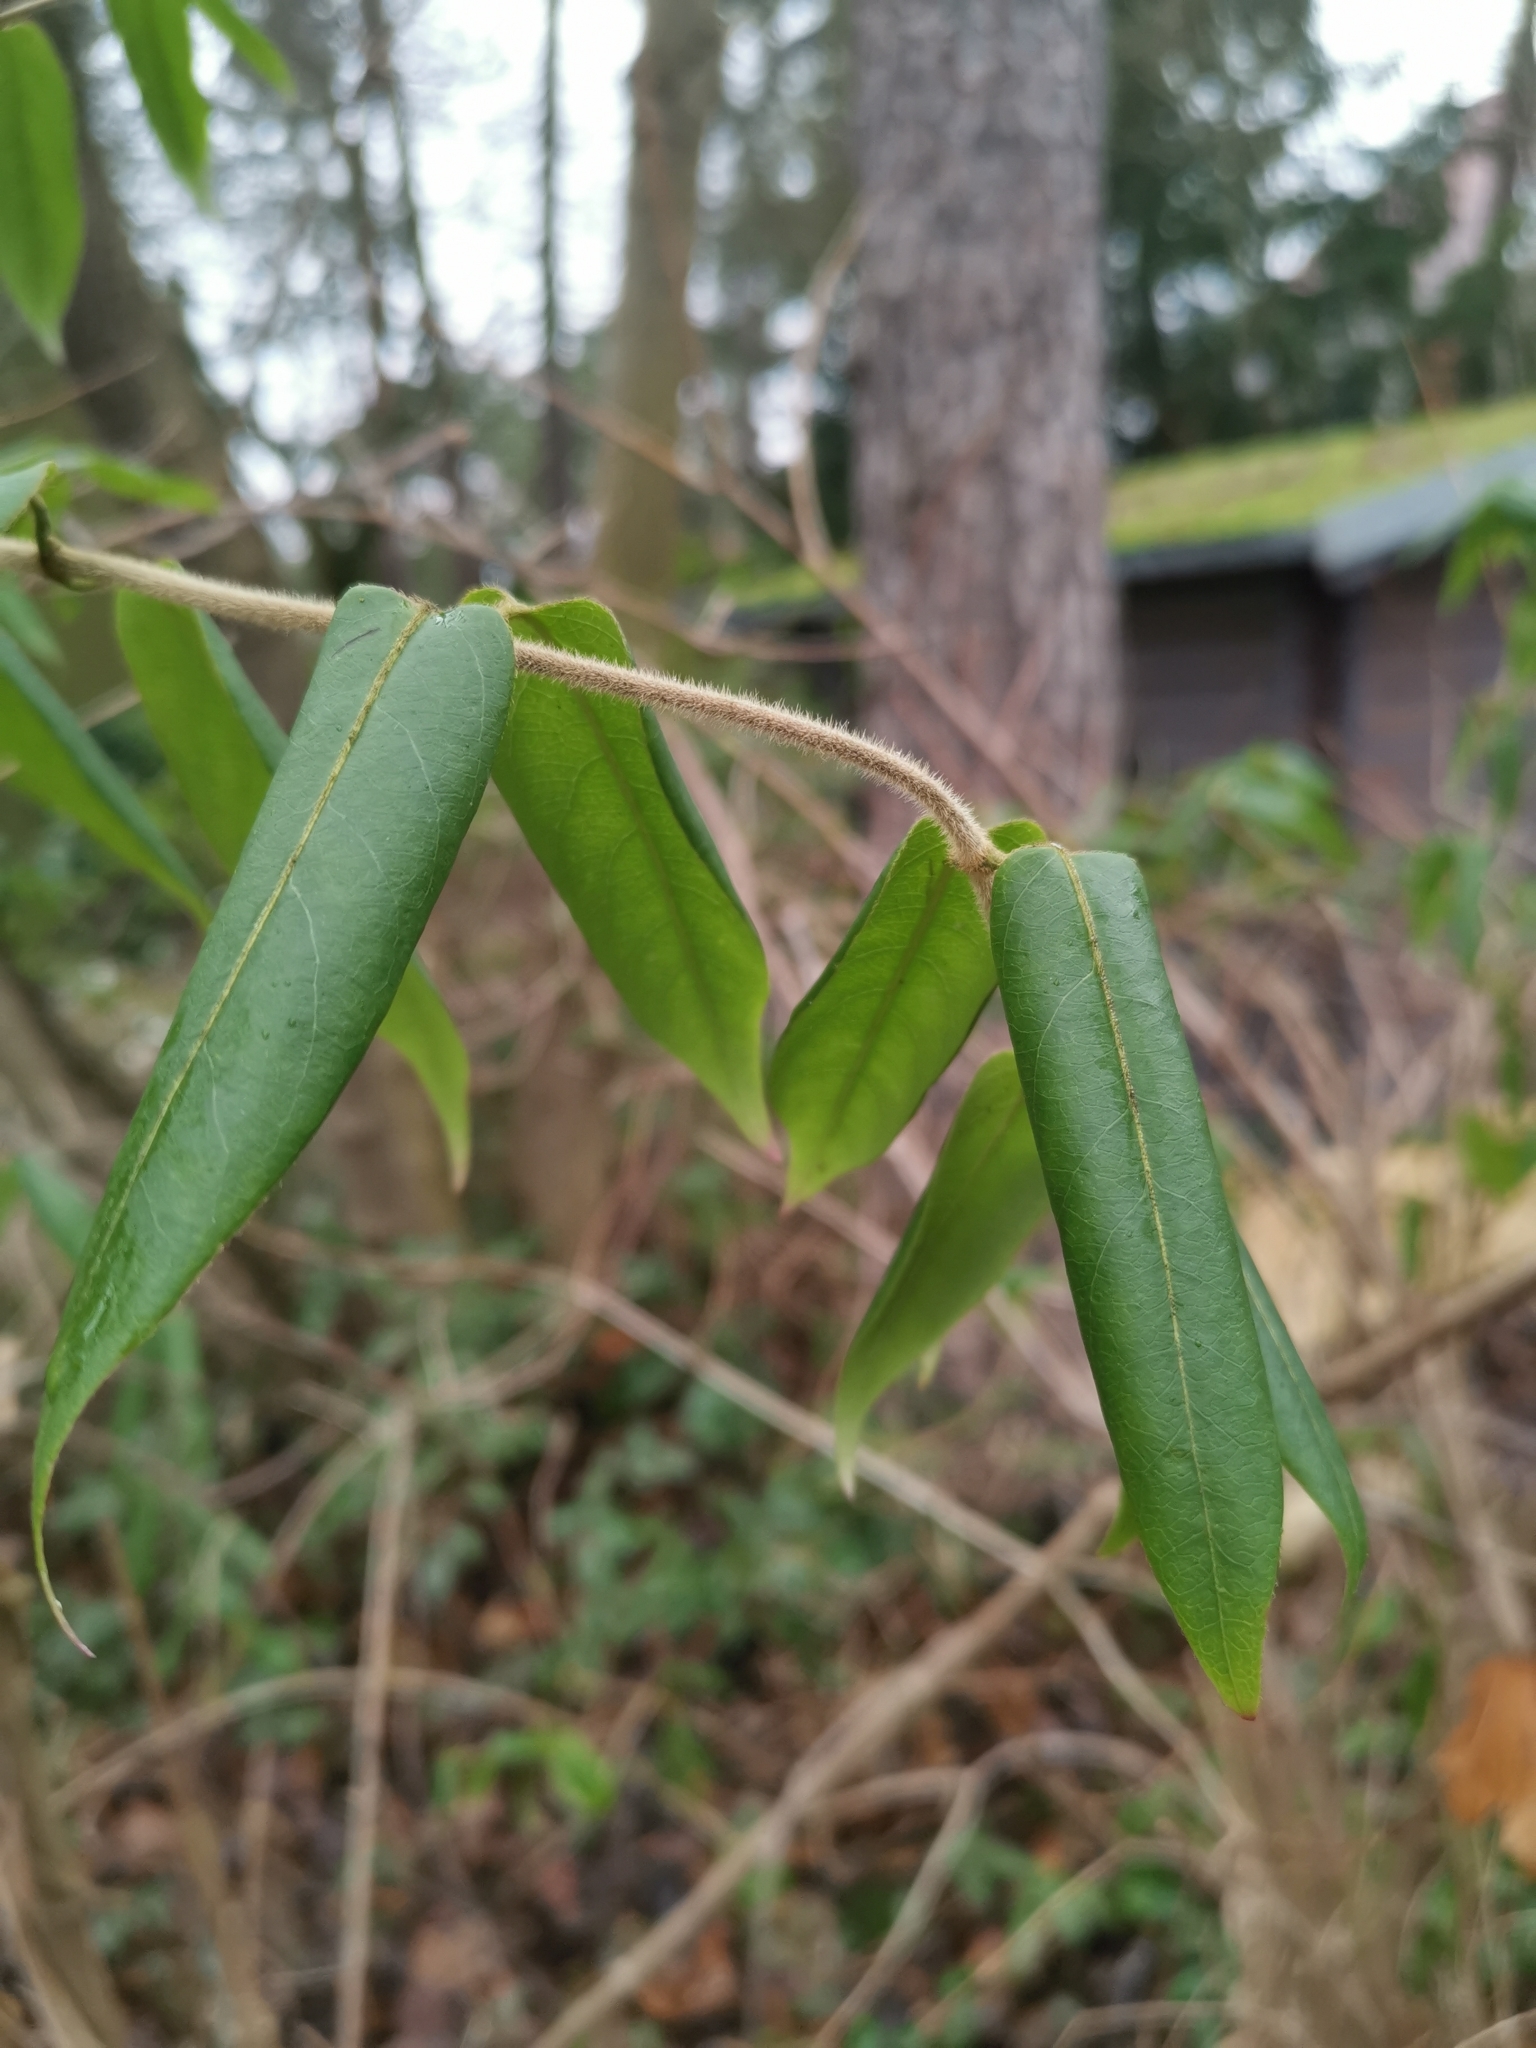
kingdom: Plantae
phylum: Tracheophyta
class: Magnoliopsida
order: Dipsacales
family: Caprifoliaceae
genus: Lonicera
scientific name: Lonicera acuminata
